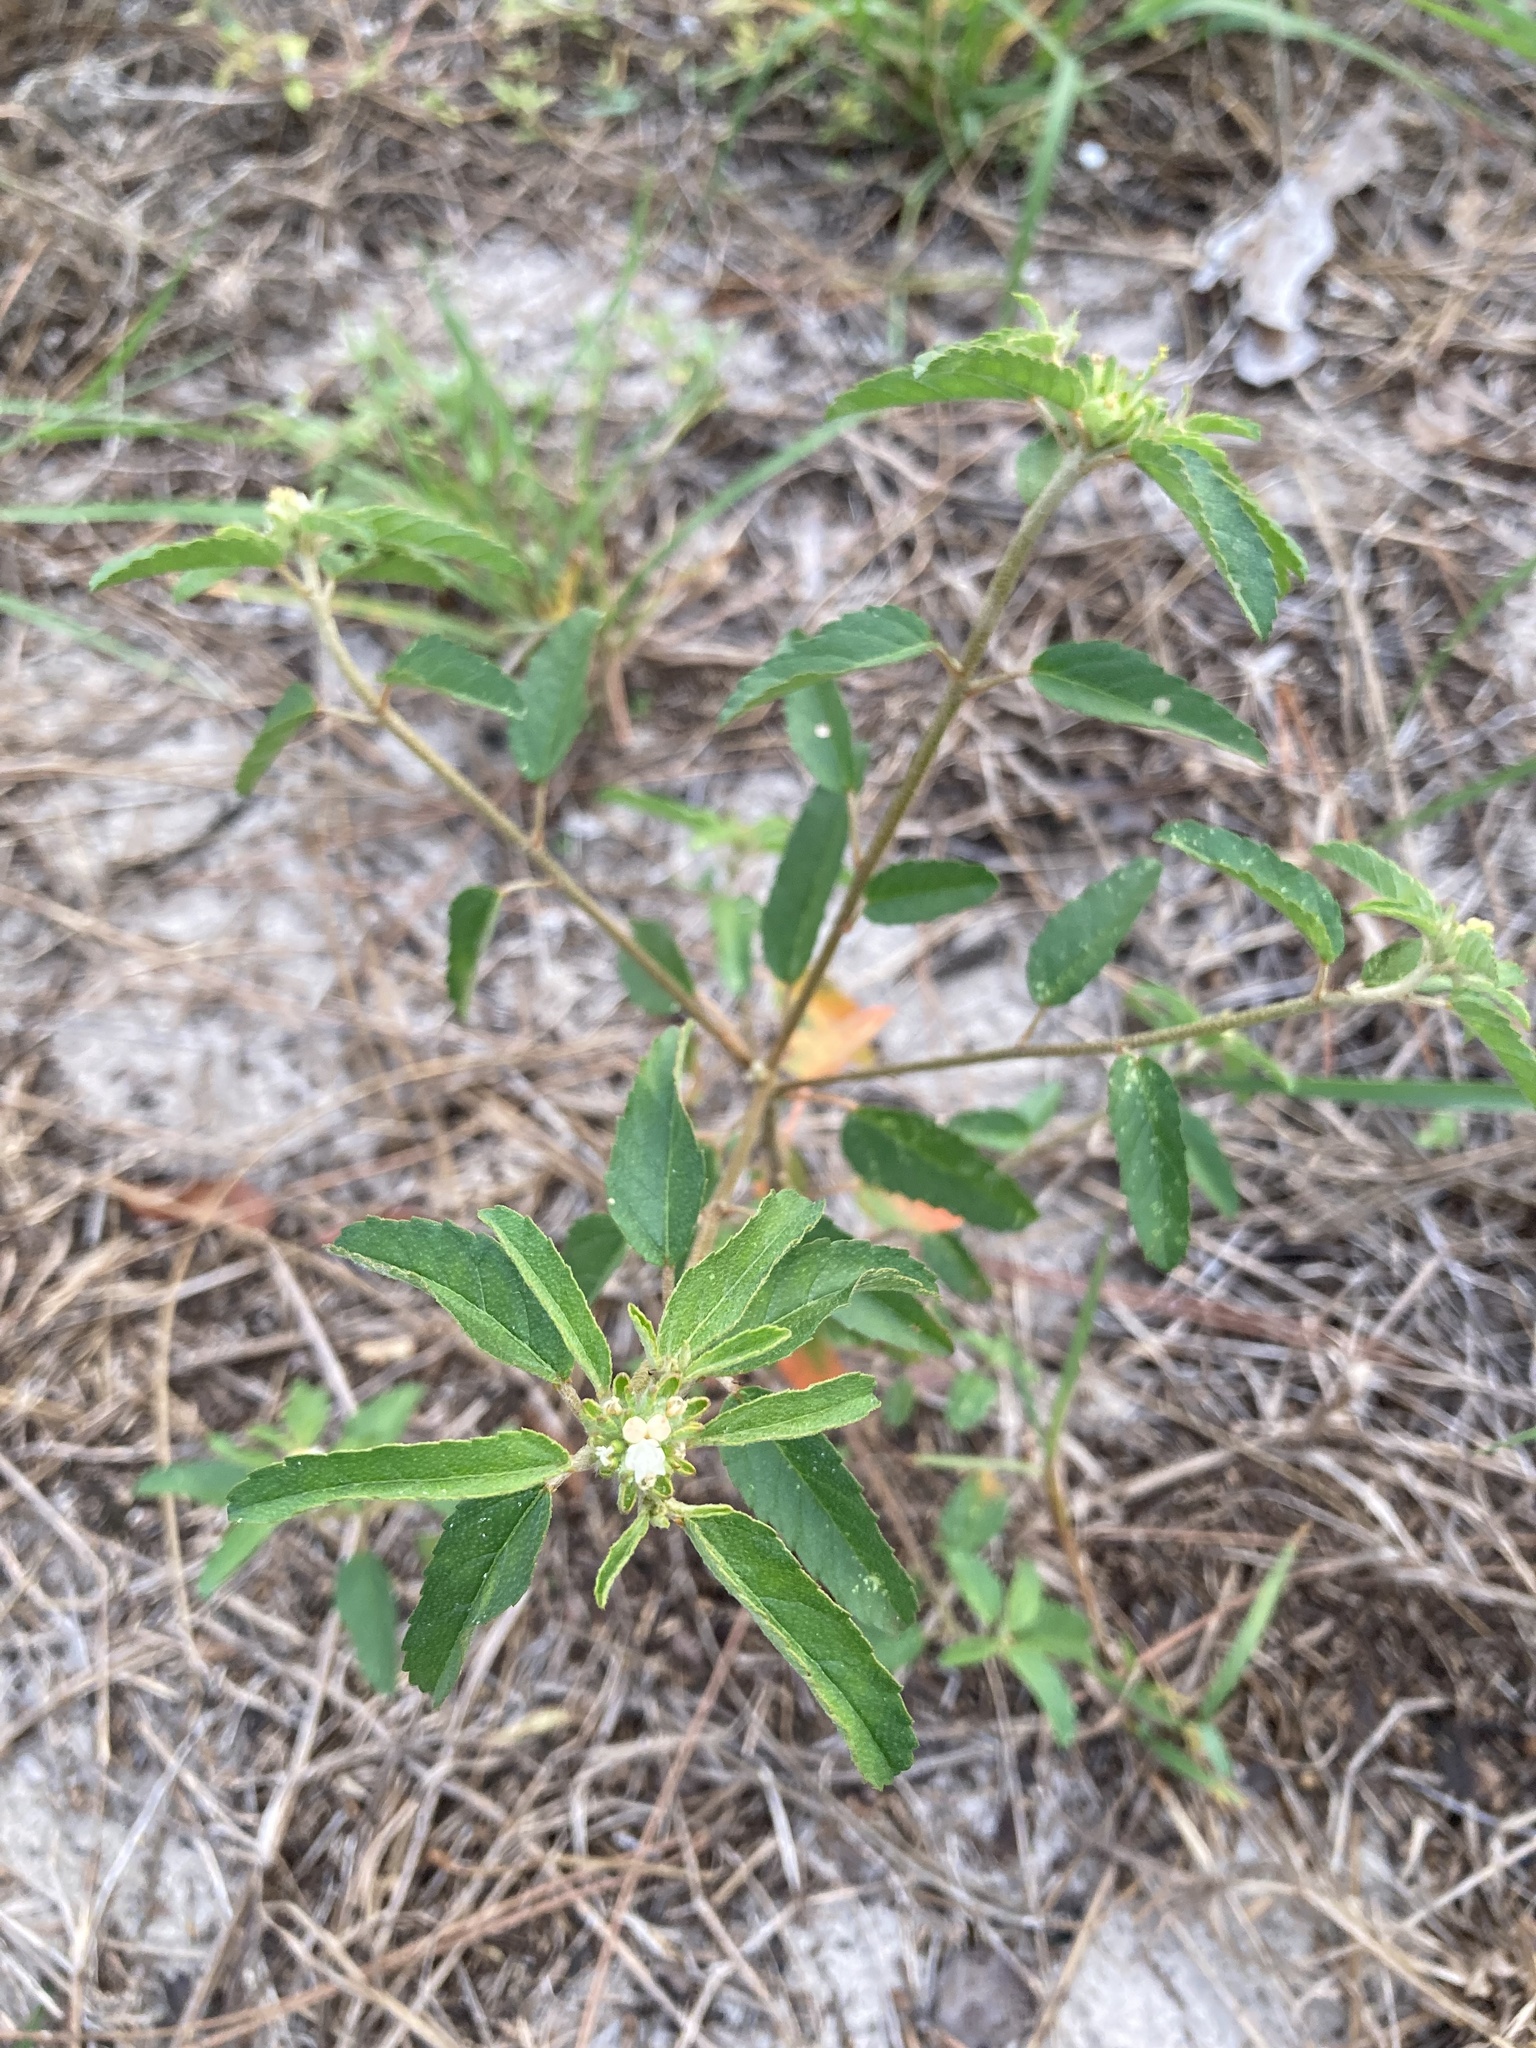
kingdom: Plantae
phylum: Tracheophyta
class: Magnoliopsida
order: Malpighiales
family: Euphorbiaceae
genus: Croton
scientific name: Croton glandulosus
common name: Tropic croton
